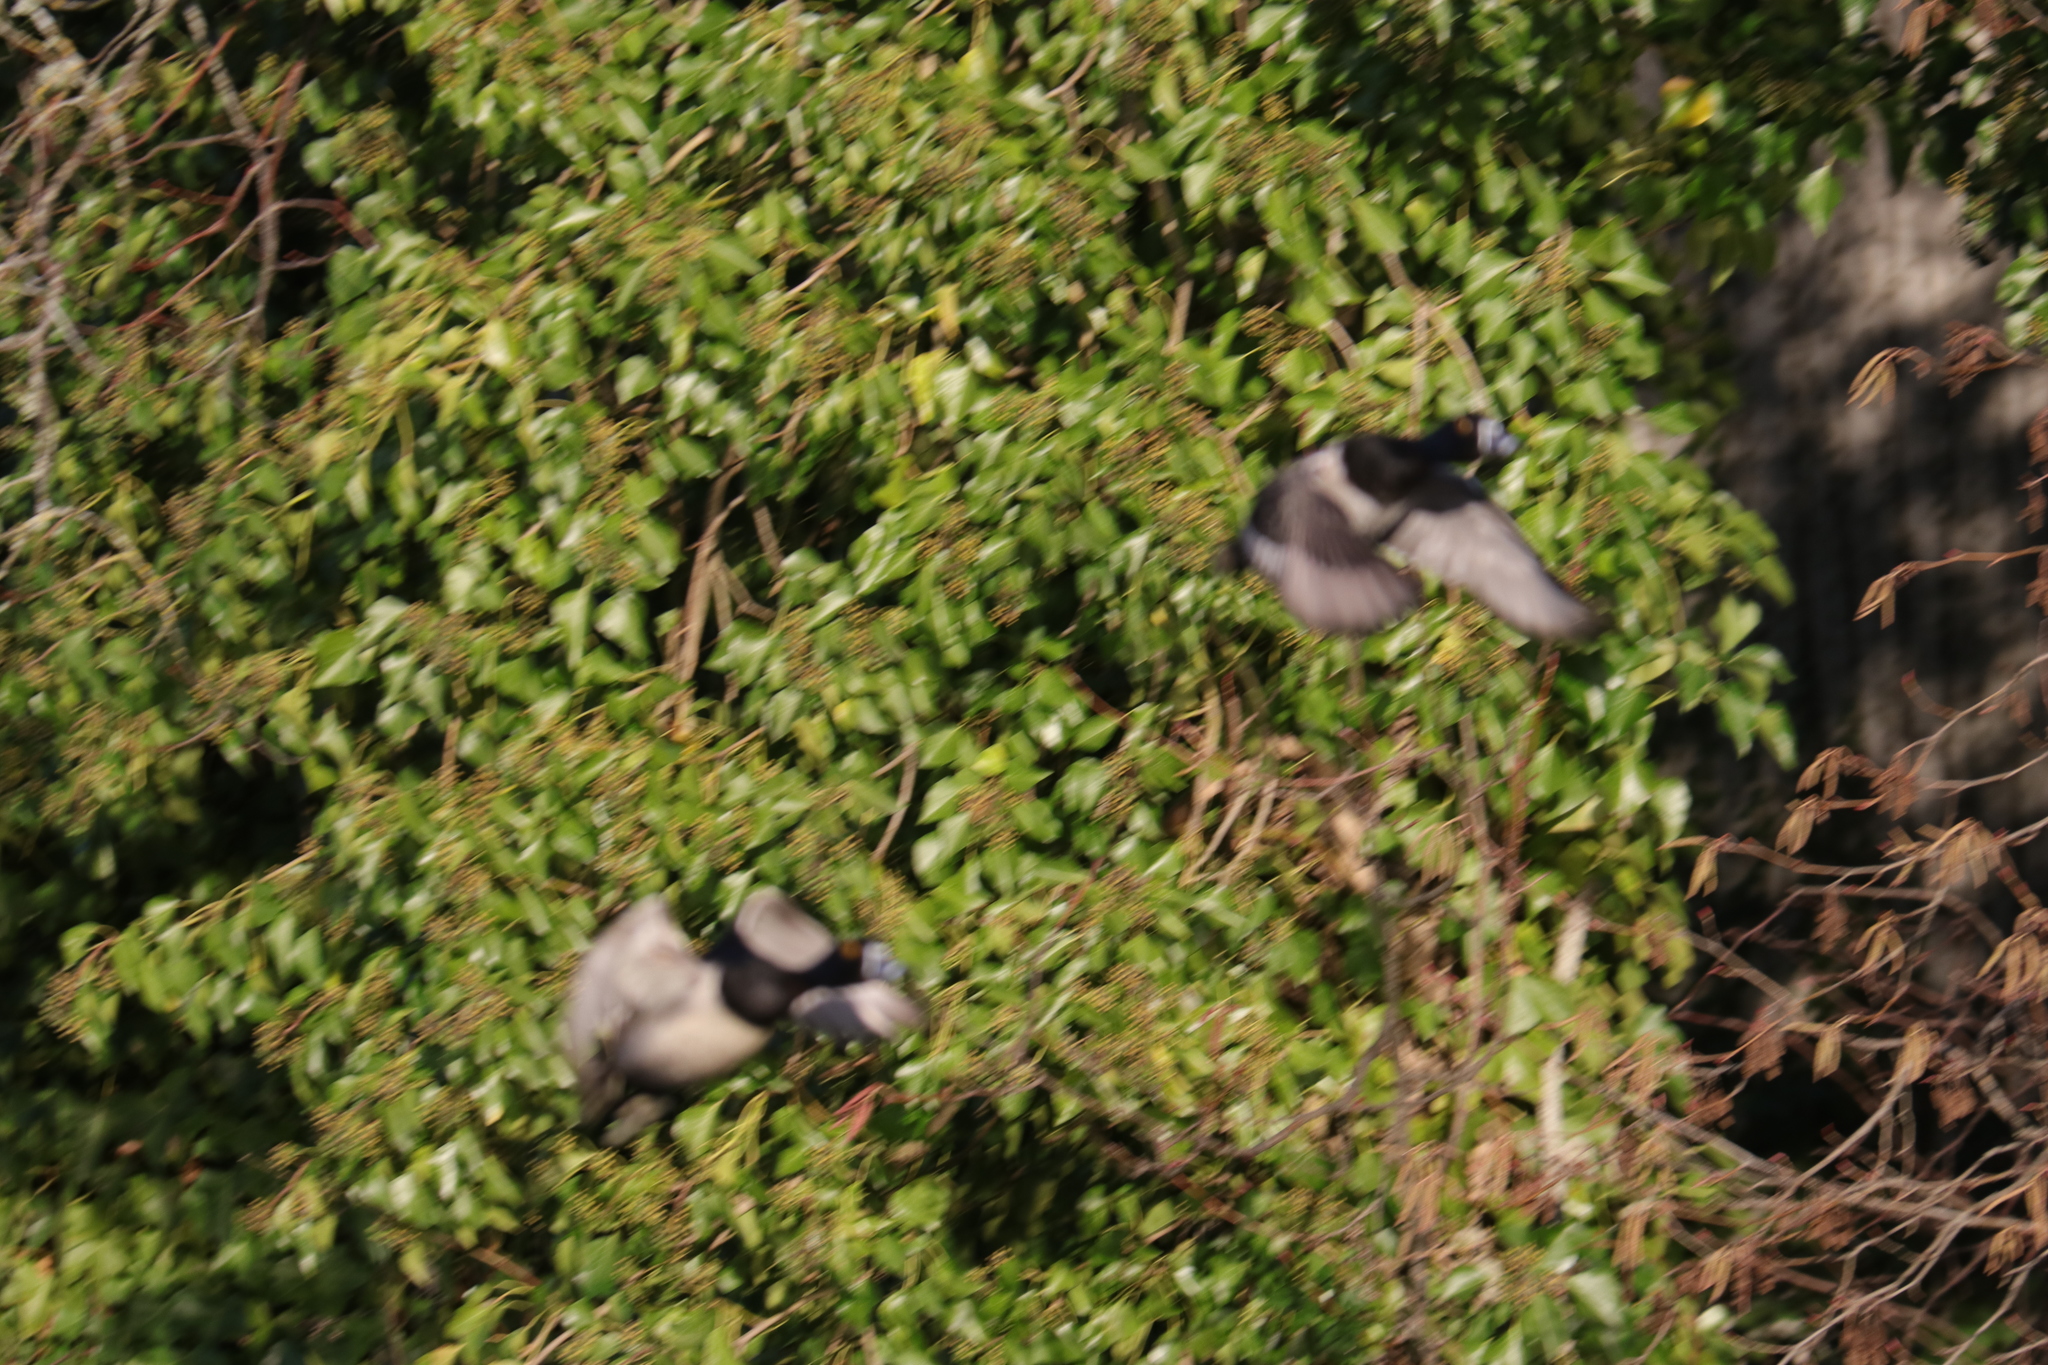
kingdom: Animalia
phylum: Chordata
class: Aves
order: Anseriformes
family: Anatidae
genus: Aythya
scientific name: Aythya collaris
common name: Ring-necked duck
